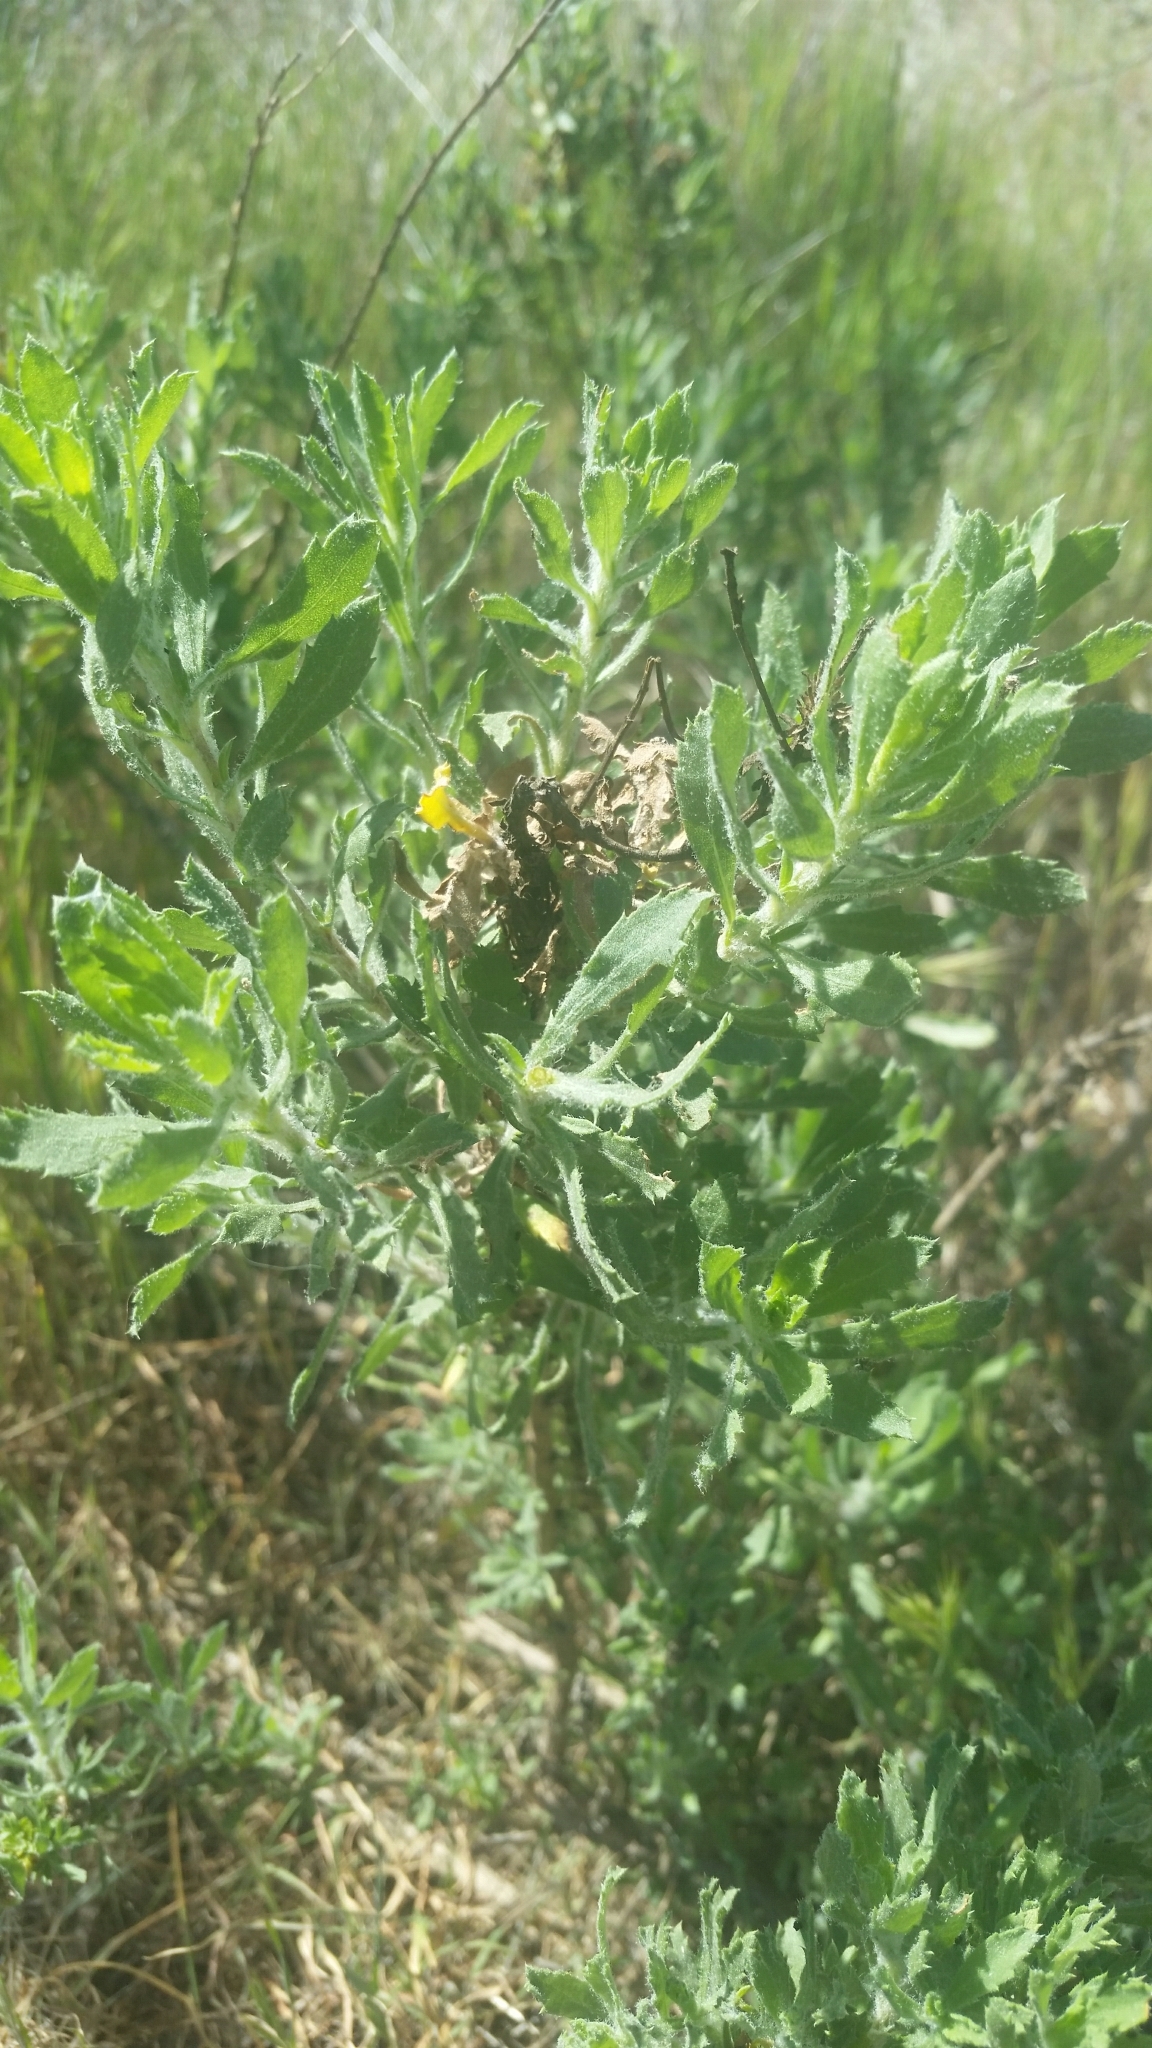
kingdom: Plantae
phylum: Tracheophyta
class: Magnoliopsida
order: Asterales
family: Asteraceae
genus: Isocoma
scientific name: Isocoma menziesii
